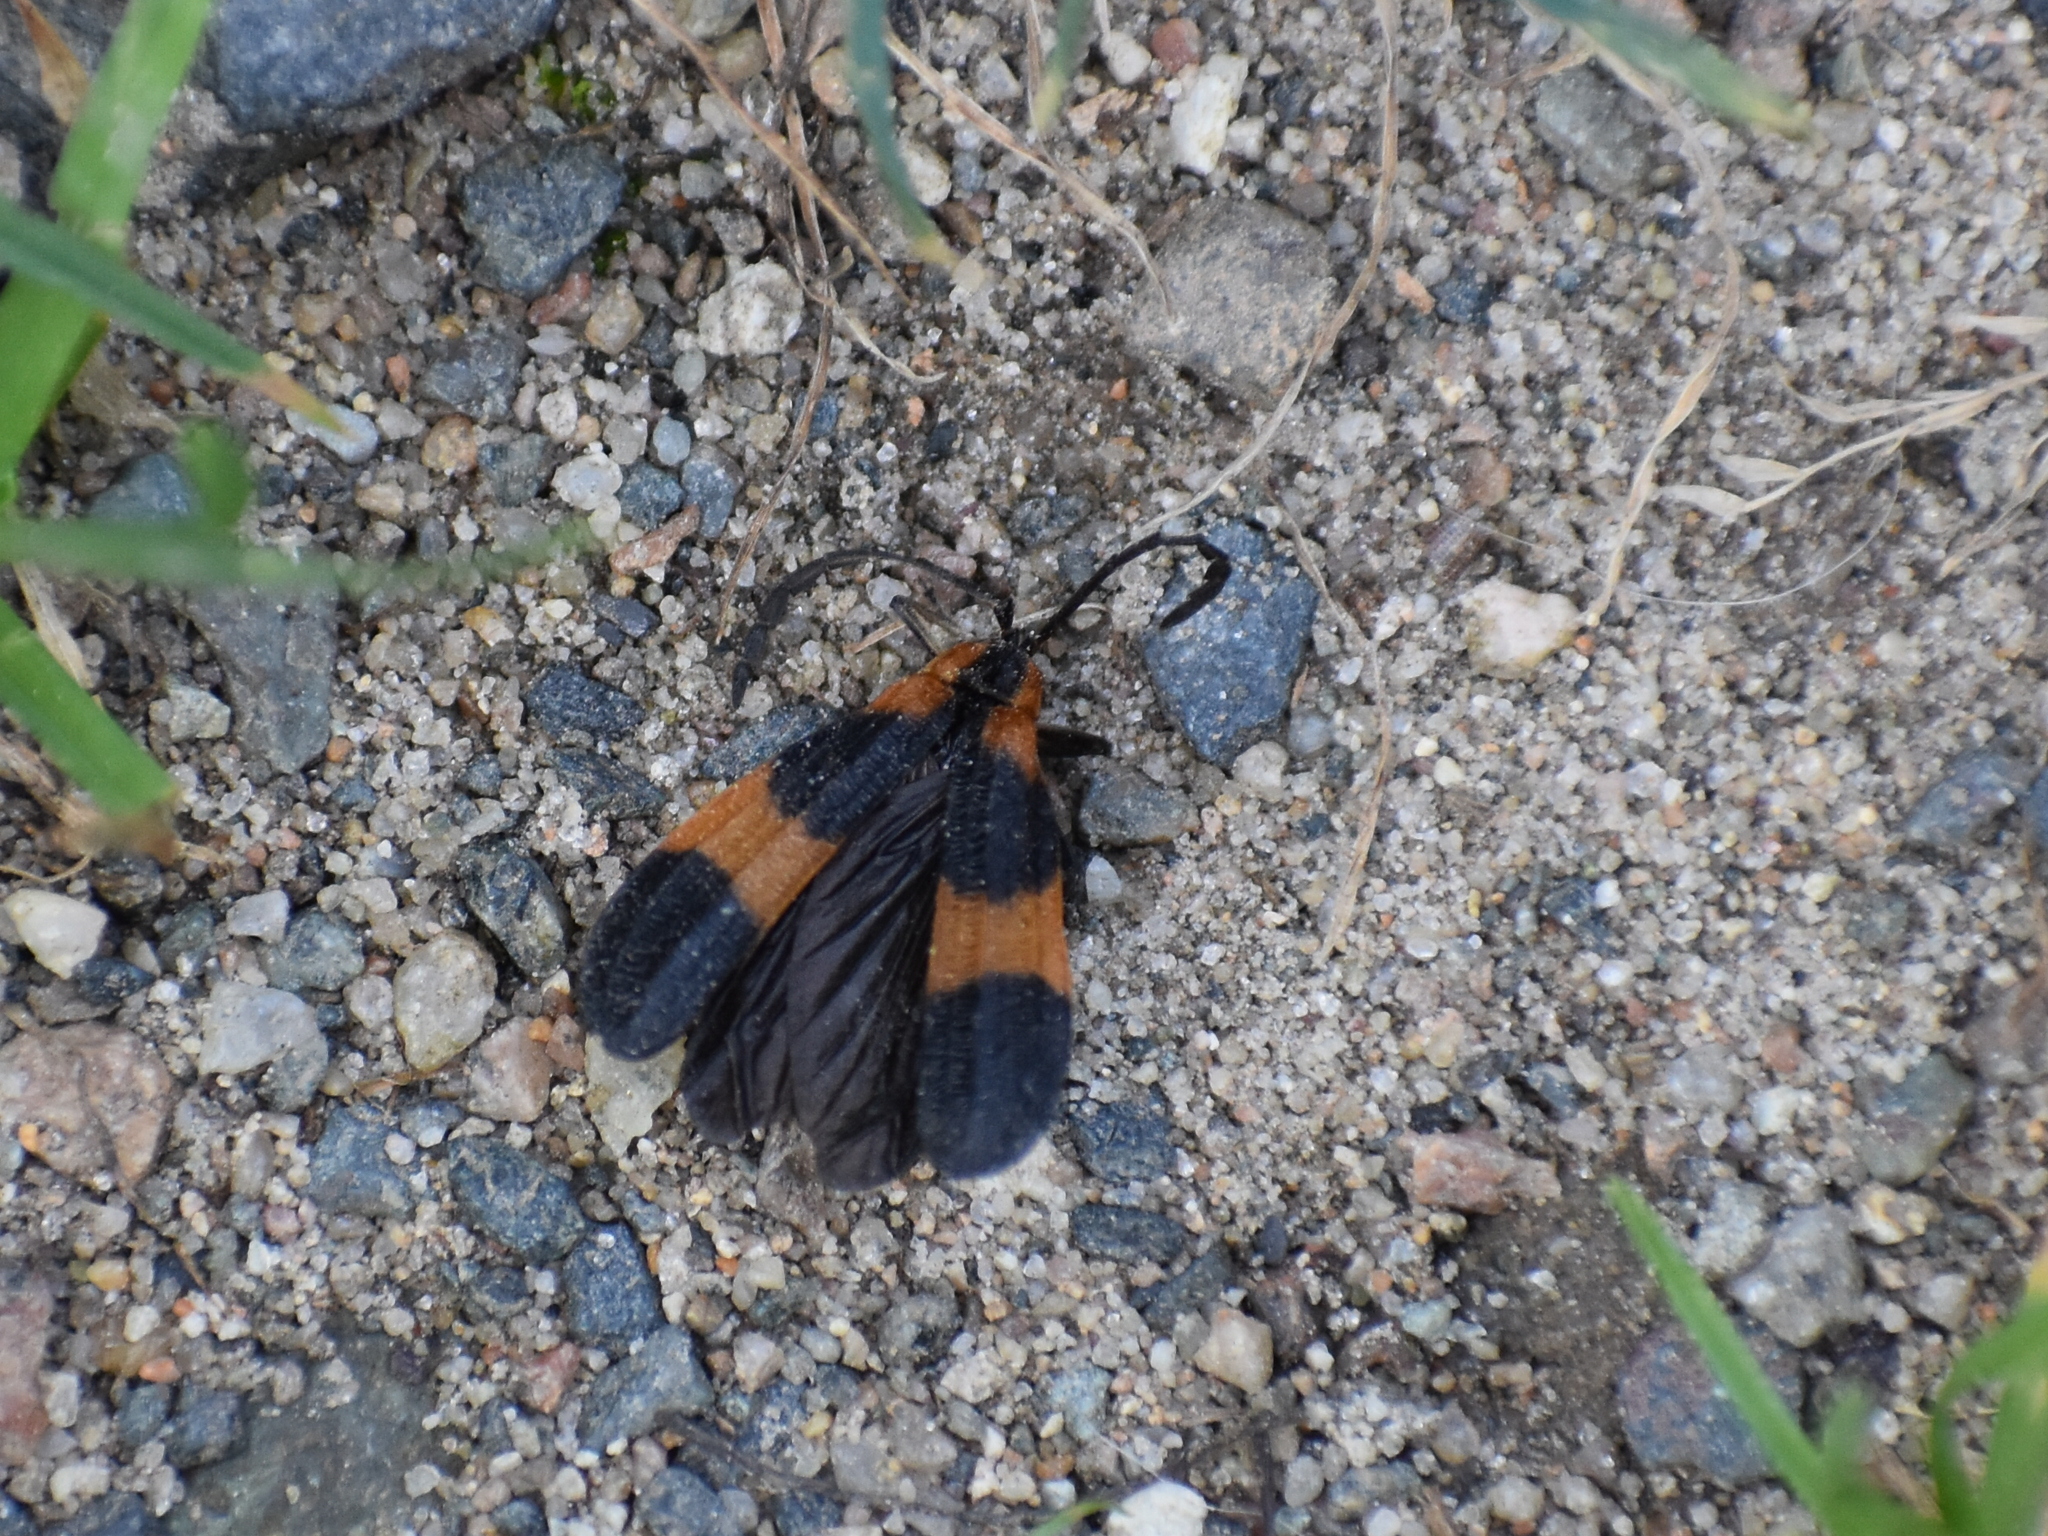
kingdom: Animalia
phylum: Arthropoda
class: Insecta
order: Coleoptera
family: Lycidae
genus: Calopteron
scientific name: Calopteron reticulatum
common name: Banded net-winged beetle
